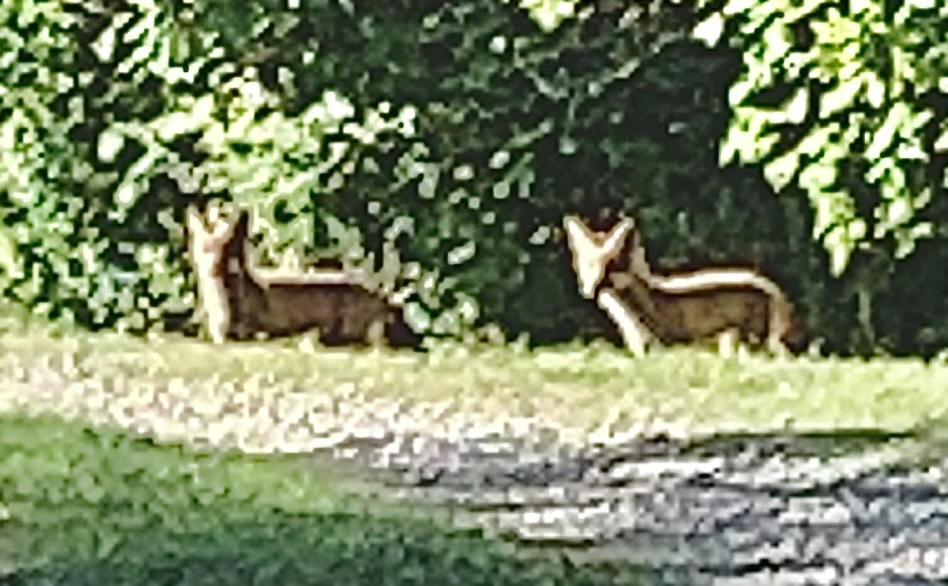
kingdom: Animalia
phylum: Chordata
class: Mammalia
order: Carnivora
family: Canidae
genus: Vulpes
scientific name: Vulpes vulpes
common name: Red fox
